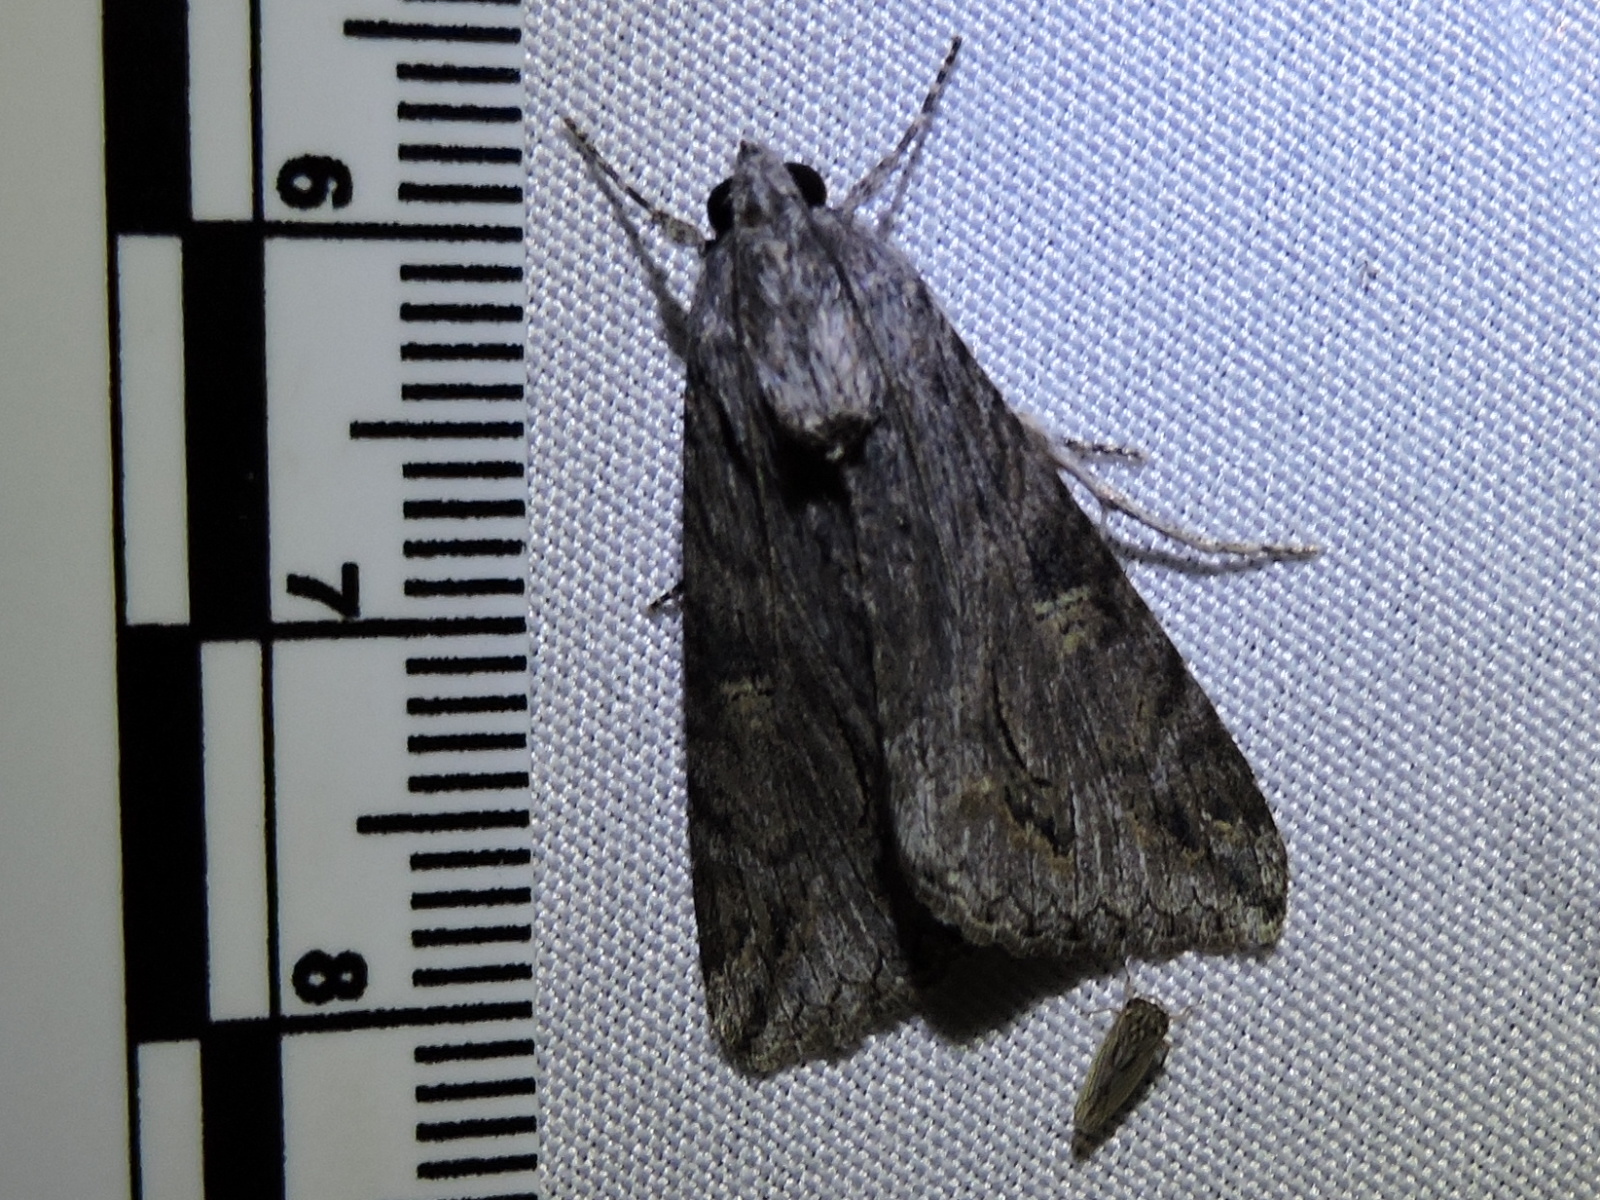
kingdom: Animalia
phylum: Arthropoda
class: Insecta
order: Lepidoptera
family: Erebidae
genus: Melipotis
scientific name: Melipotis jucunda
